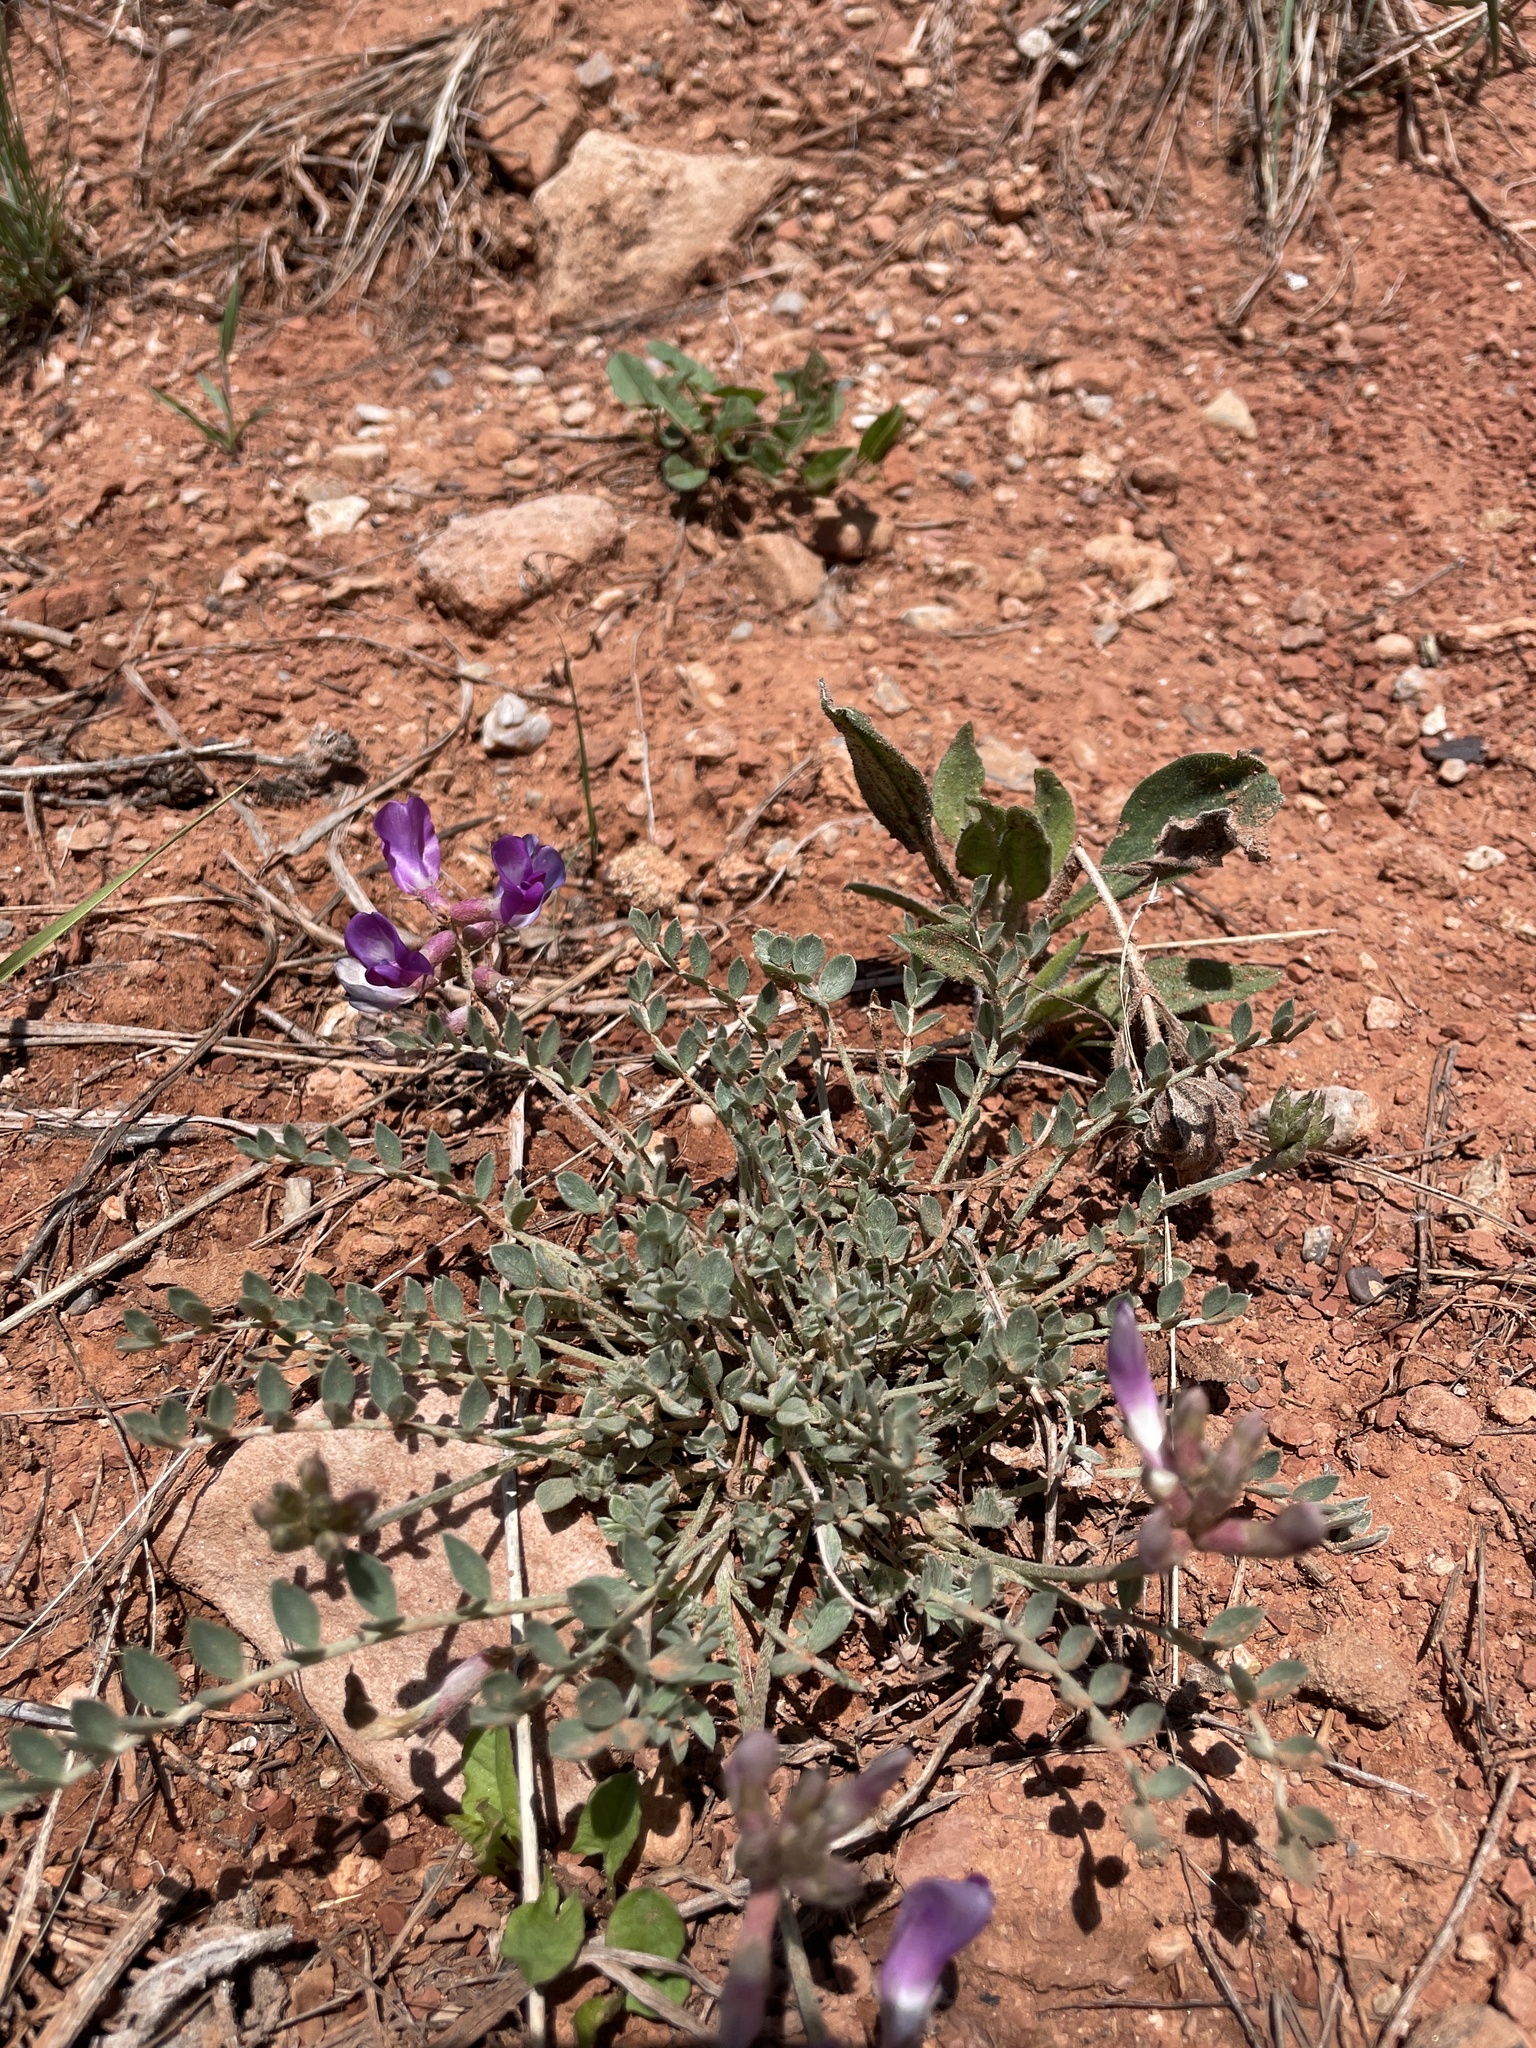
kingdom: Plantae
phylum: Tracheophyta
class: Magnoliopsida
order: Fabales
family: Fabaceae
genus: Astragalus
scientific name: Astragalus missouriensis
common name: Missouri milk-vetch
